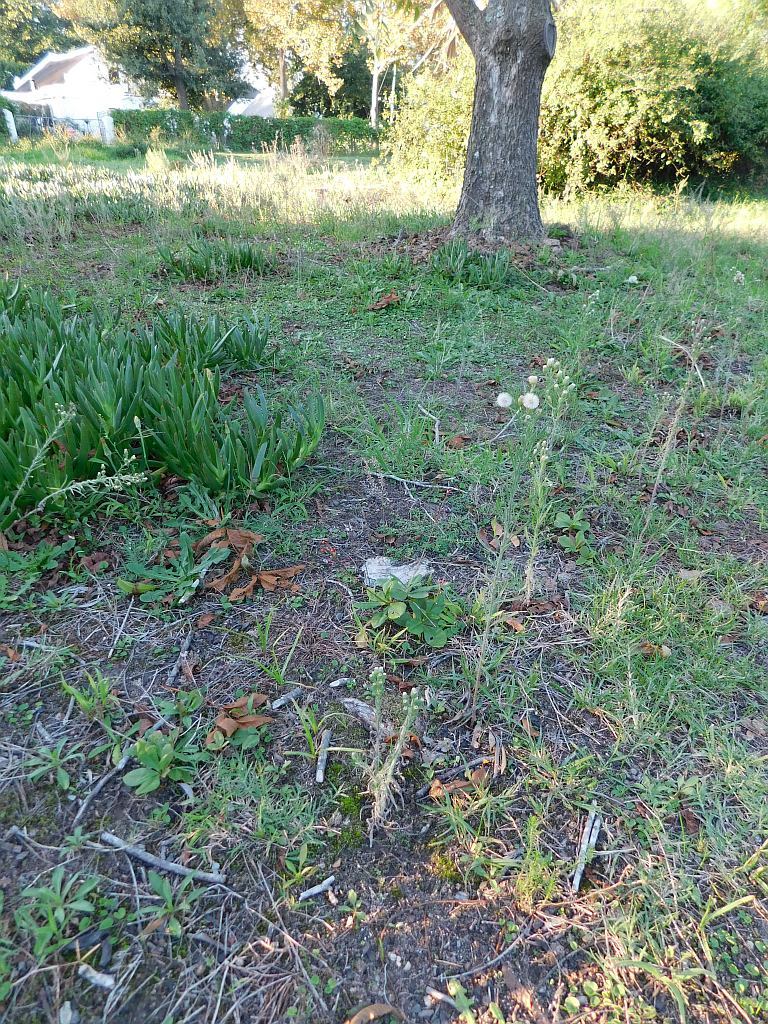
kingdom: Plantae
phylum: Tracheophyta
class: Magnoliopsida
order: Caryophyllales
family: Talinaceae
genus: Talinum
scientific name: Talinum paniculatum
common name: Jewels of opar
